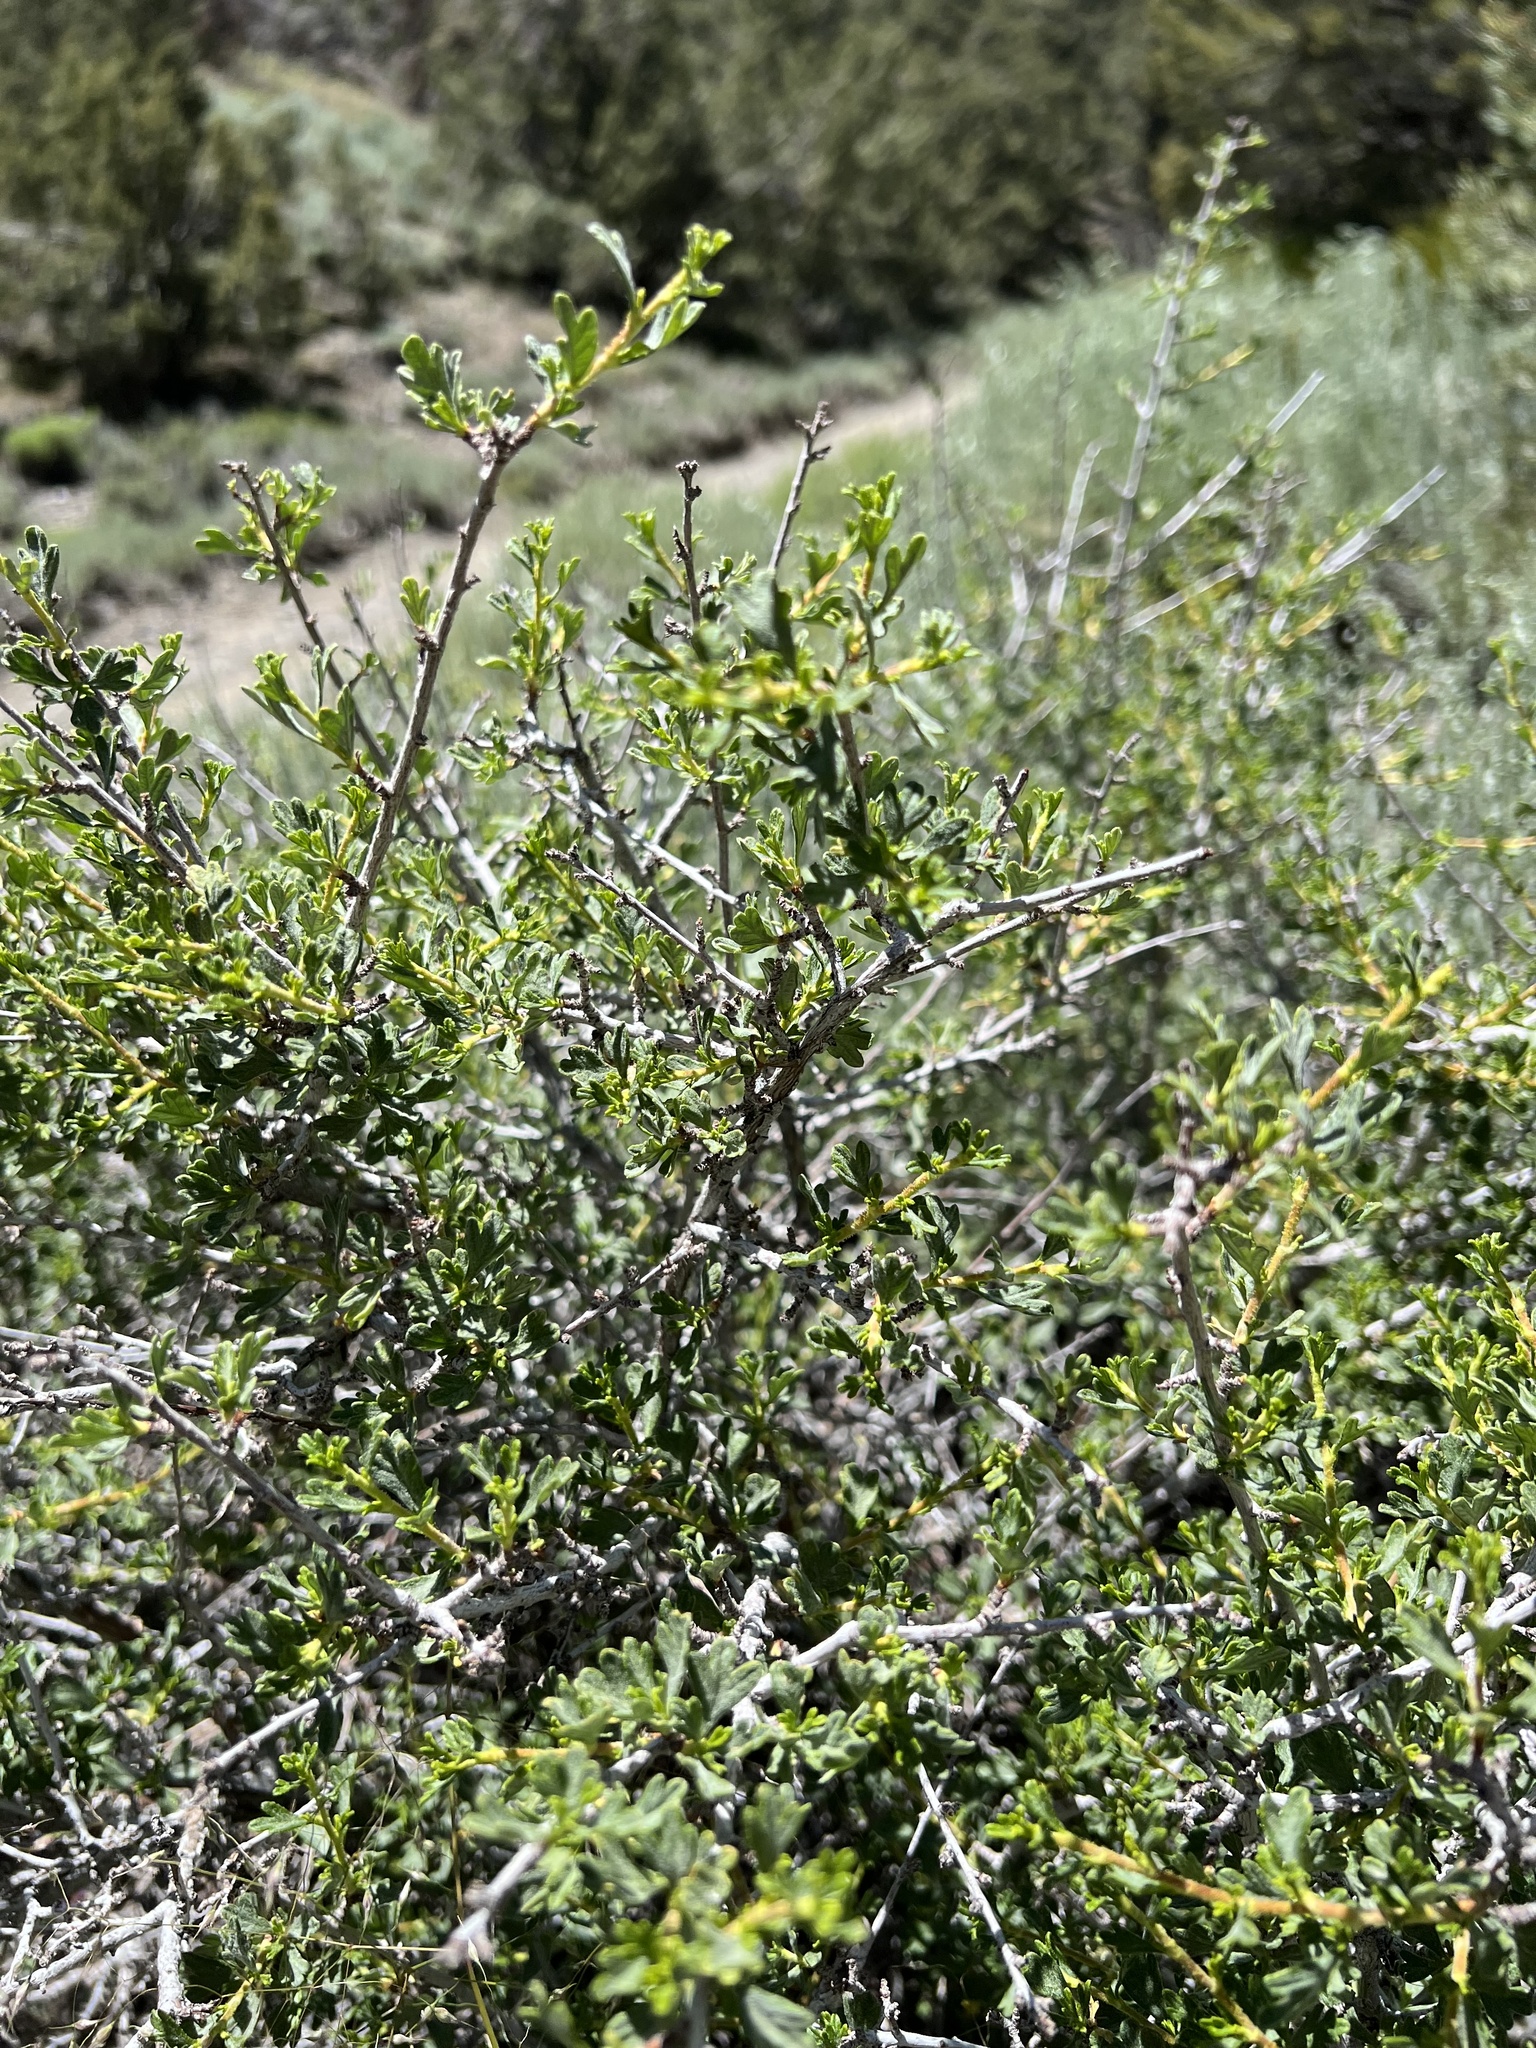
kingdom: Plantae
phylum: Tracheophyta
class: Magnoliopsida
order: Rosales
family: Rosaceae
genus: Purshia
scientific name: Purshia tridentata
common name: Antelope bitterbrush
